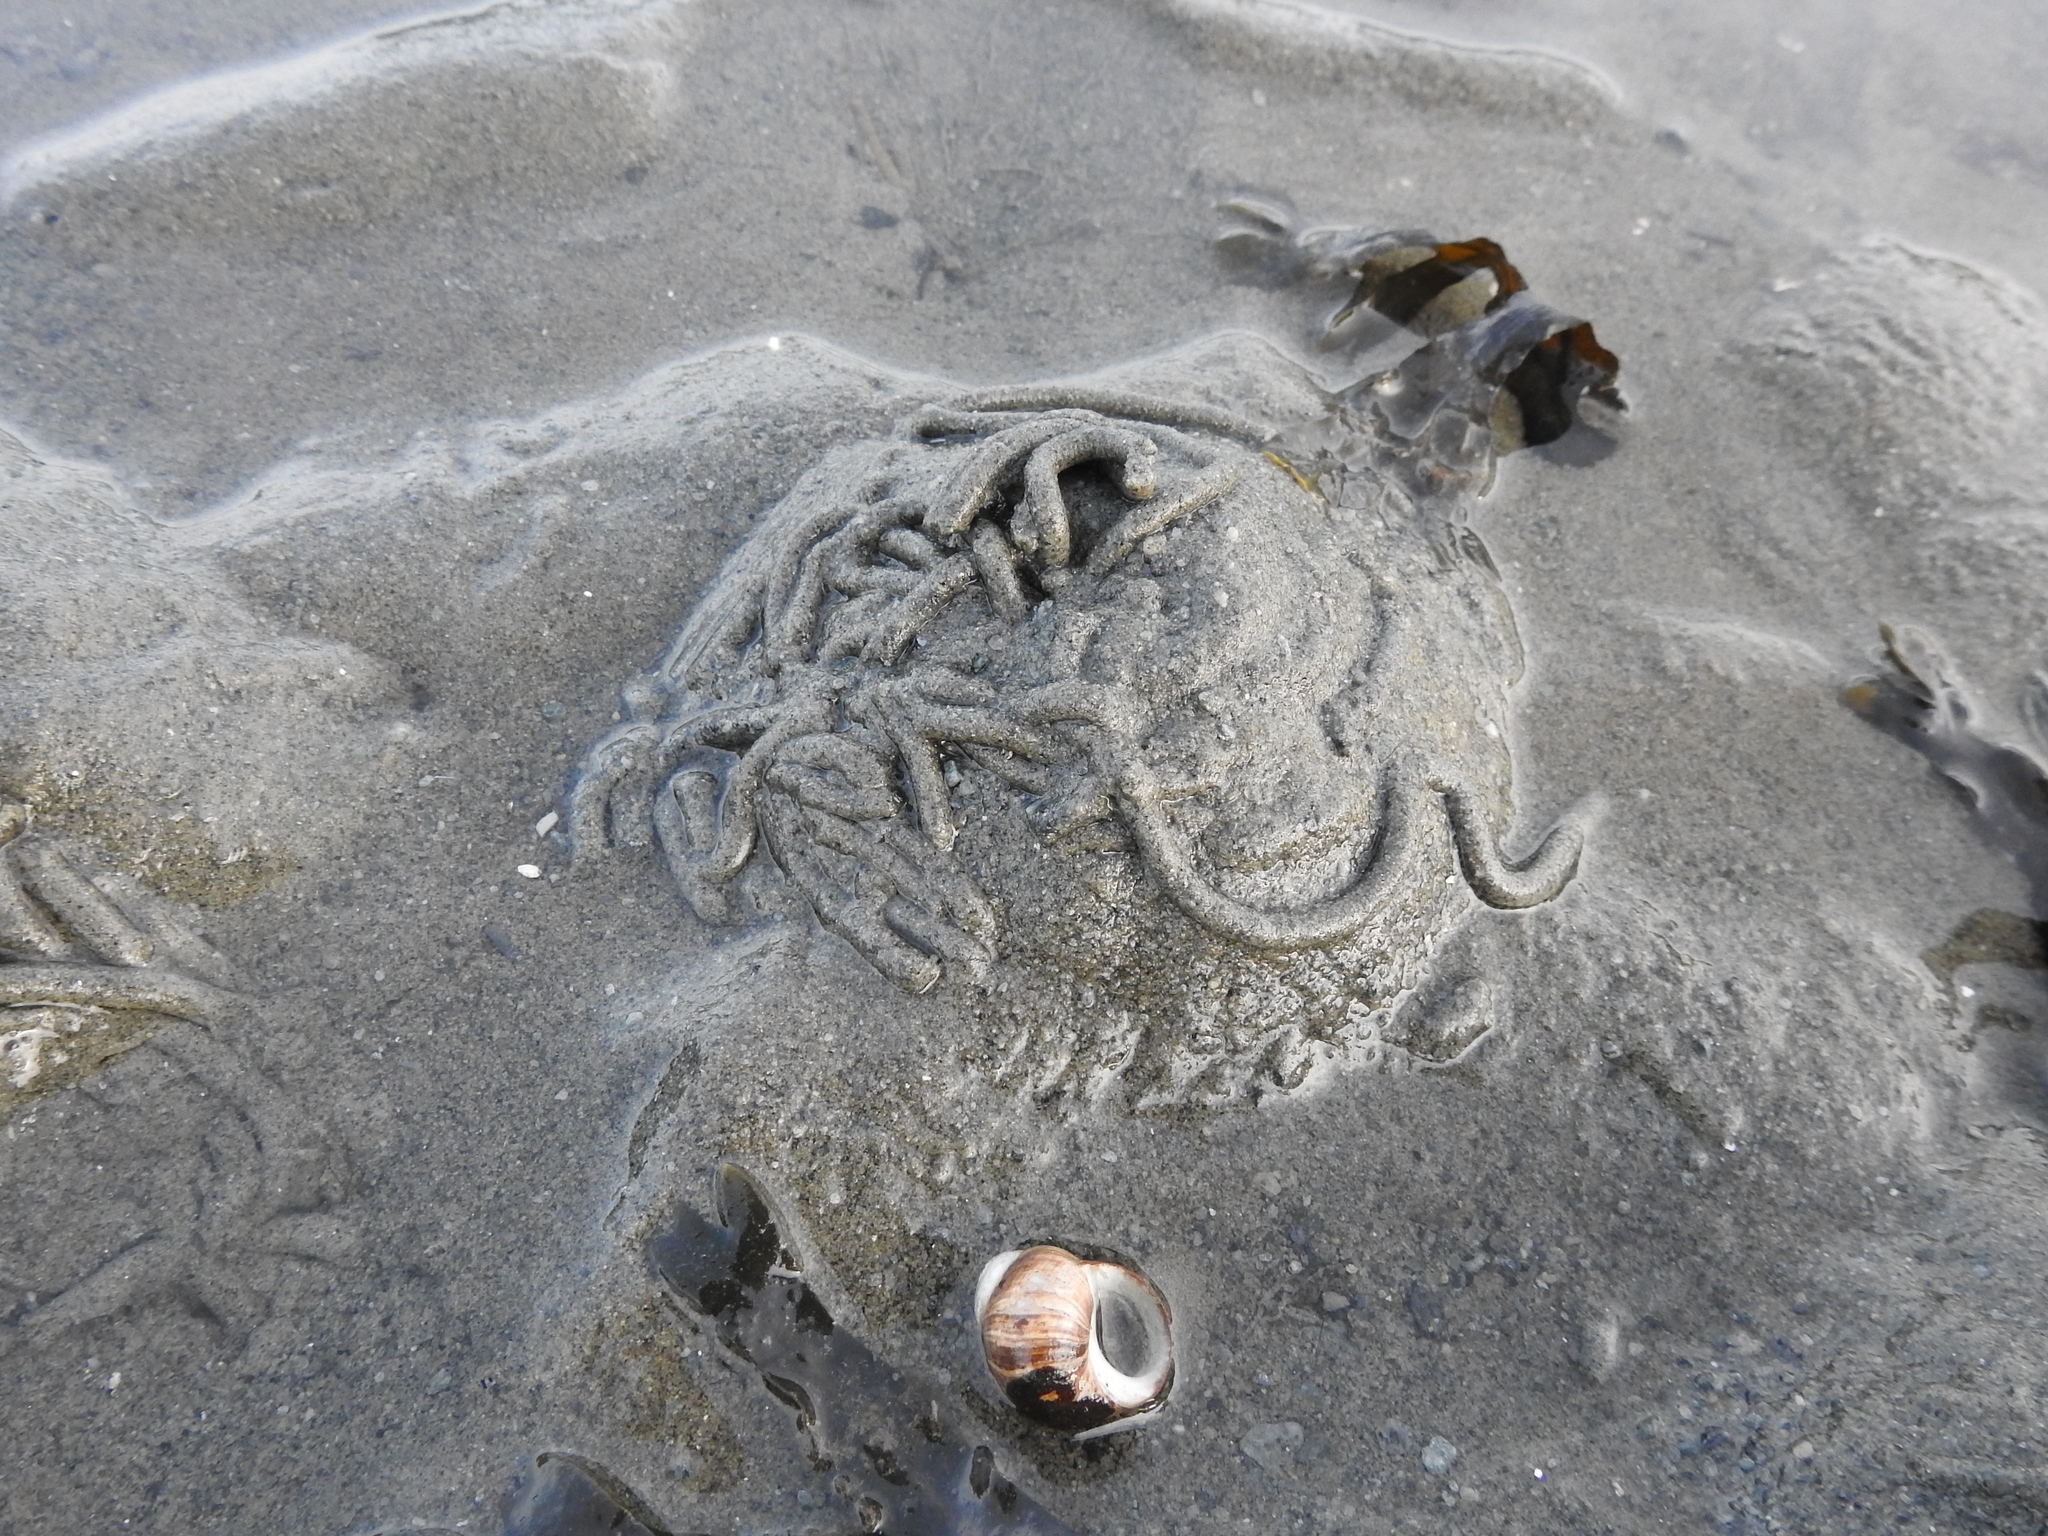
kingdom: Animalia
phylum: Annelida
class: Polychaeta
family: Arenicolidae
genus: Arenicola
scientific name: Arenicola marina
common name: Blow lugworm
